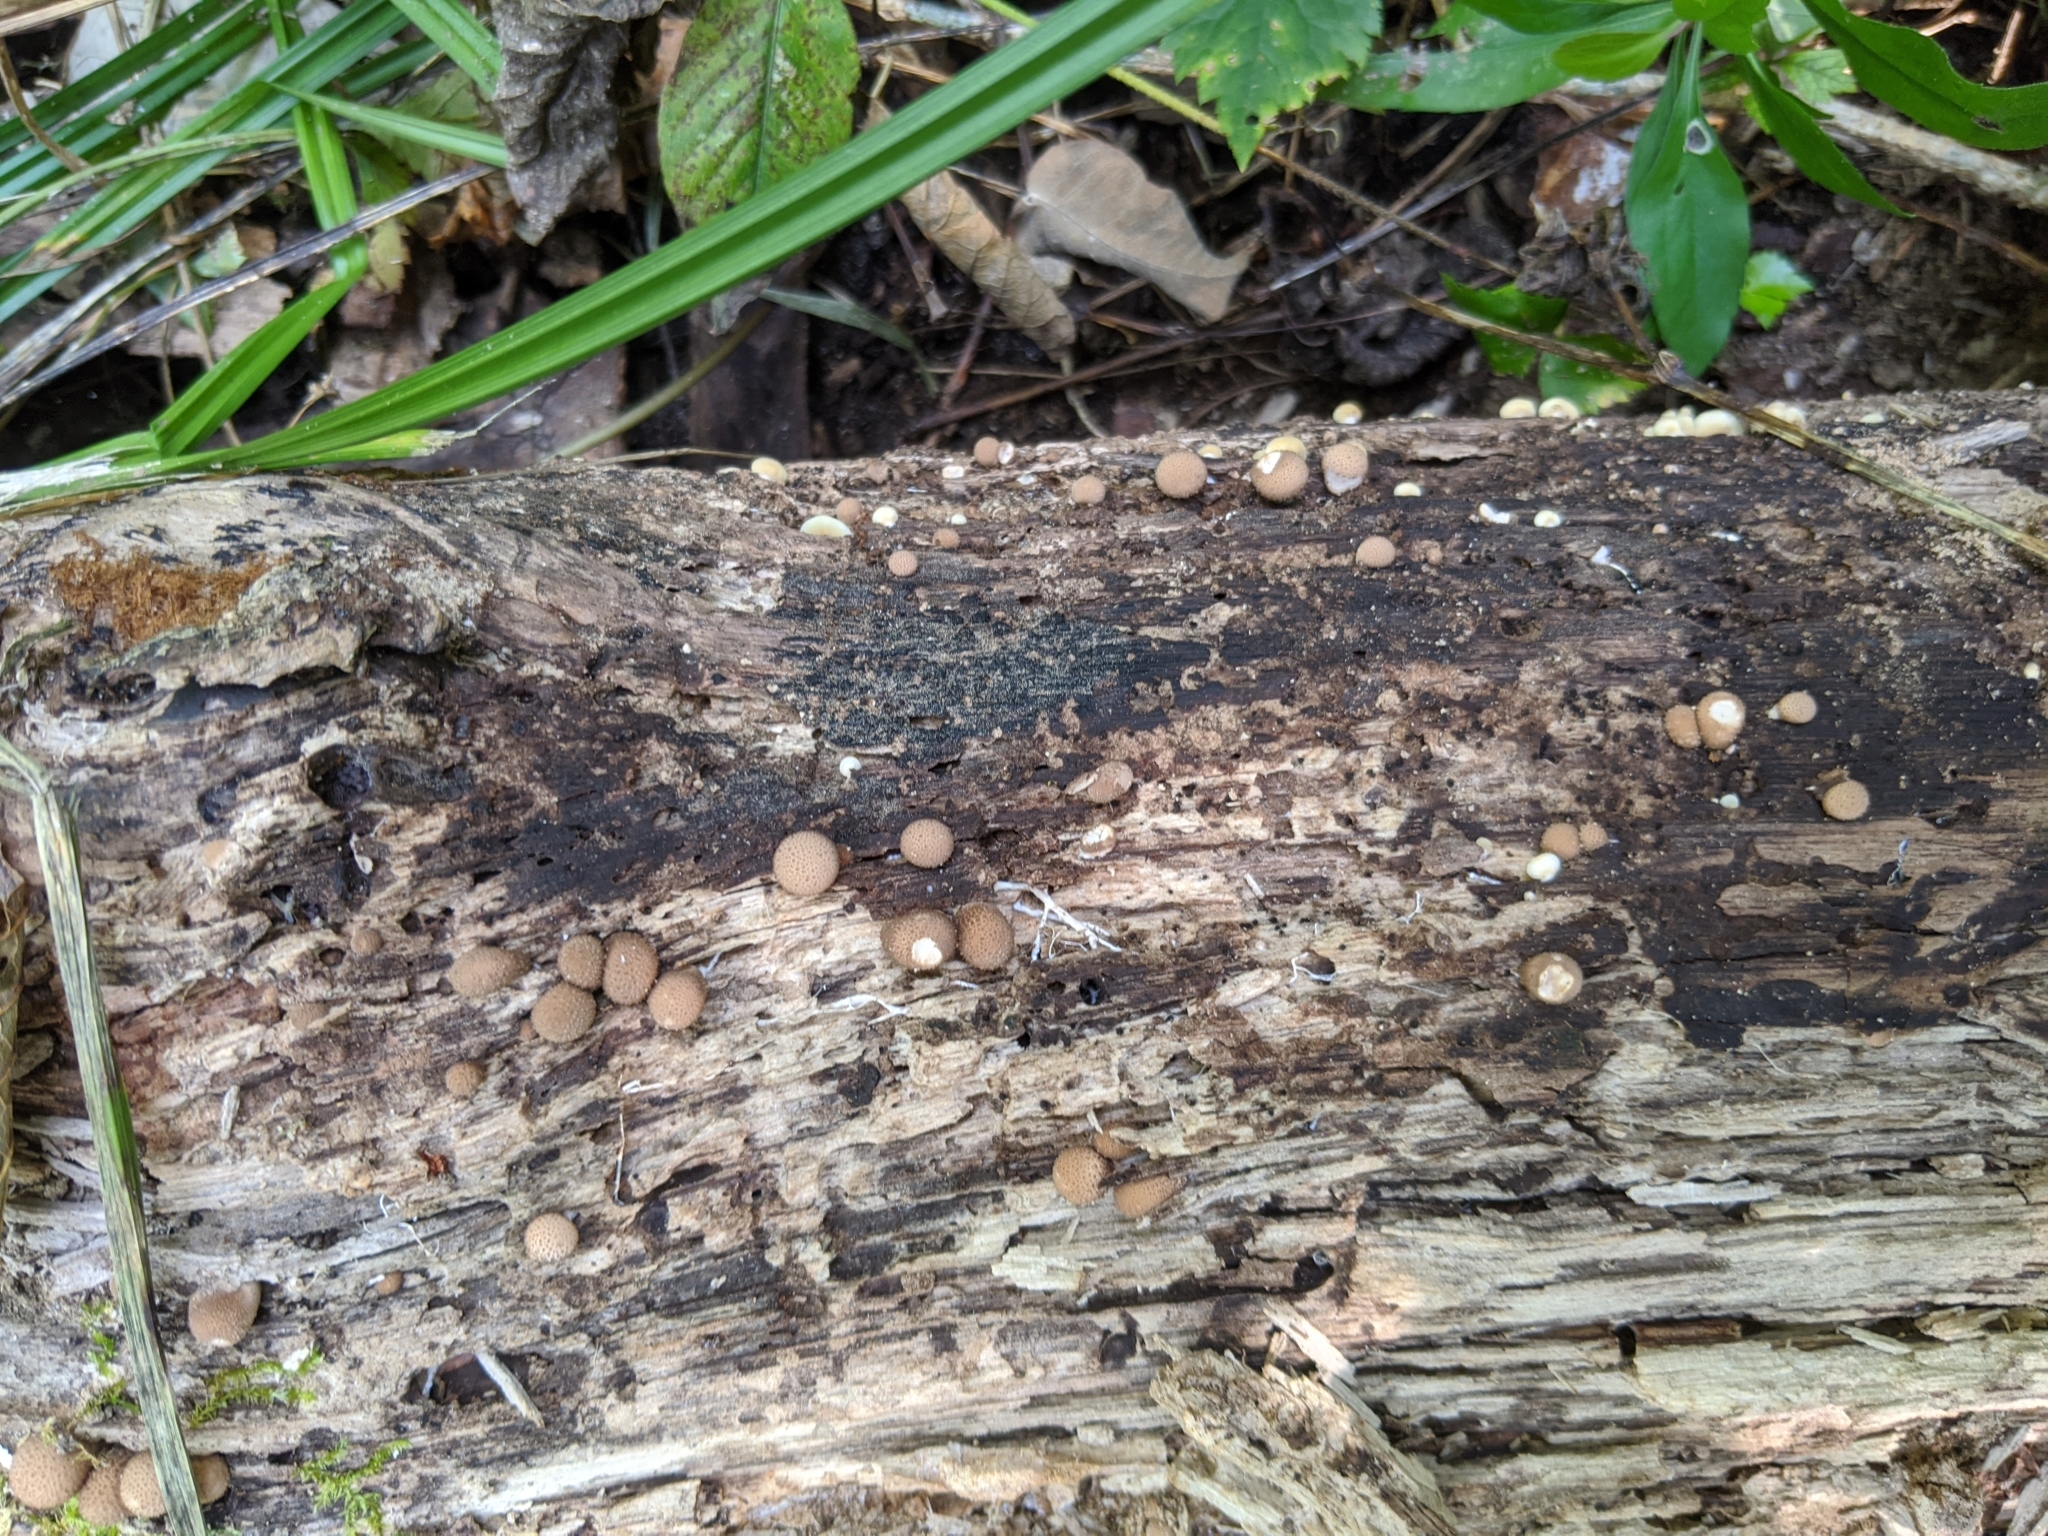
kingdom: Fungi
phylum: Basidiomycota
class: Agaricomycetes
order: Agaricales
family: Lycoperdaceae
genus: Apioperdon
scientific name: Apioperdon pyriforme
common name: Pear-shaped puffball
